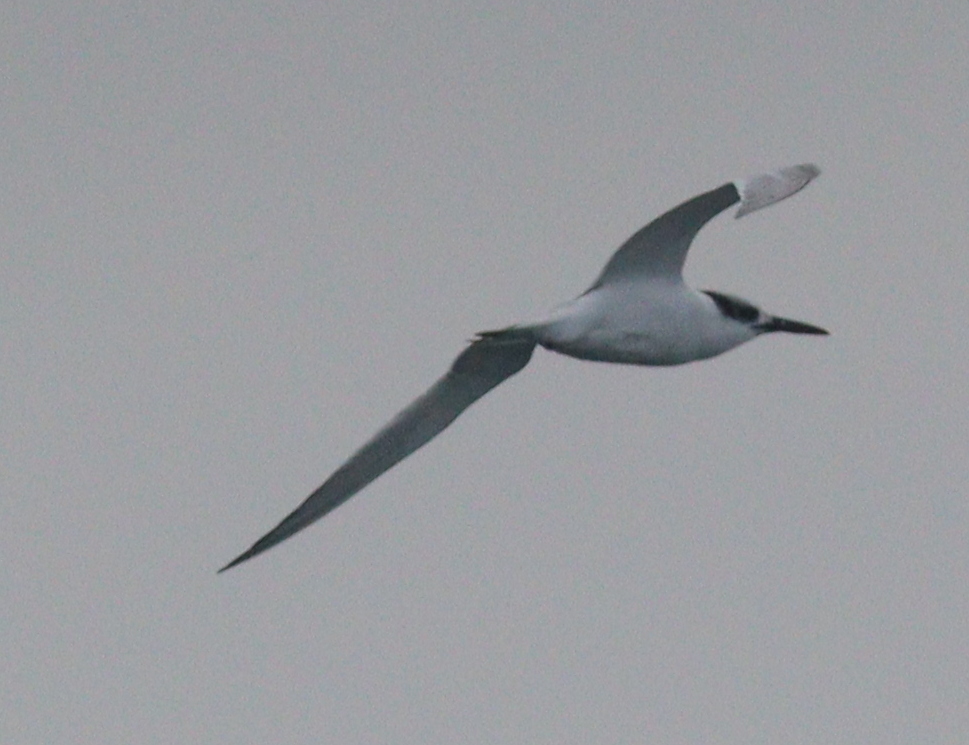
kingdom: Animalia
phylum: Chordata
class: Aves
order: Charadriiformes
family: Laridae
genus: Thalasseus
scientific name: Thalasseus sandvicensis
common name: Sandwich tern
